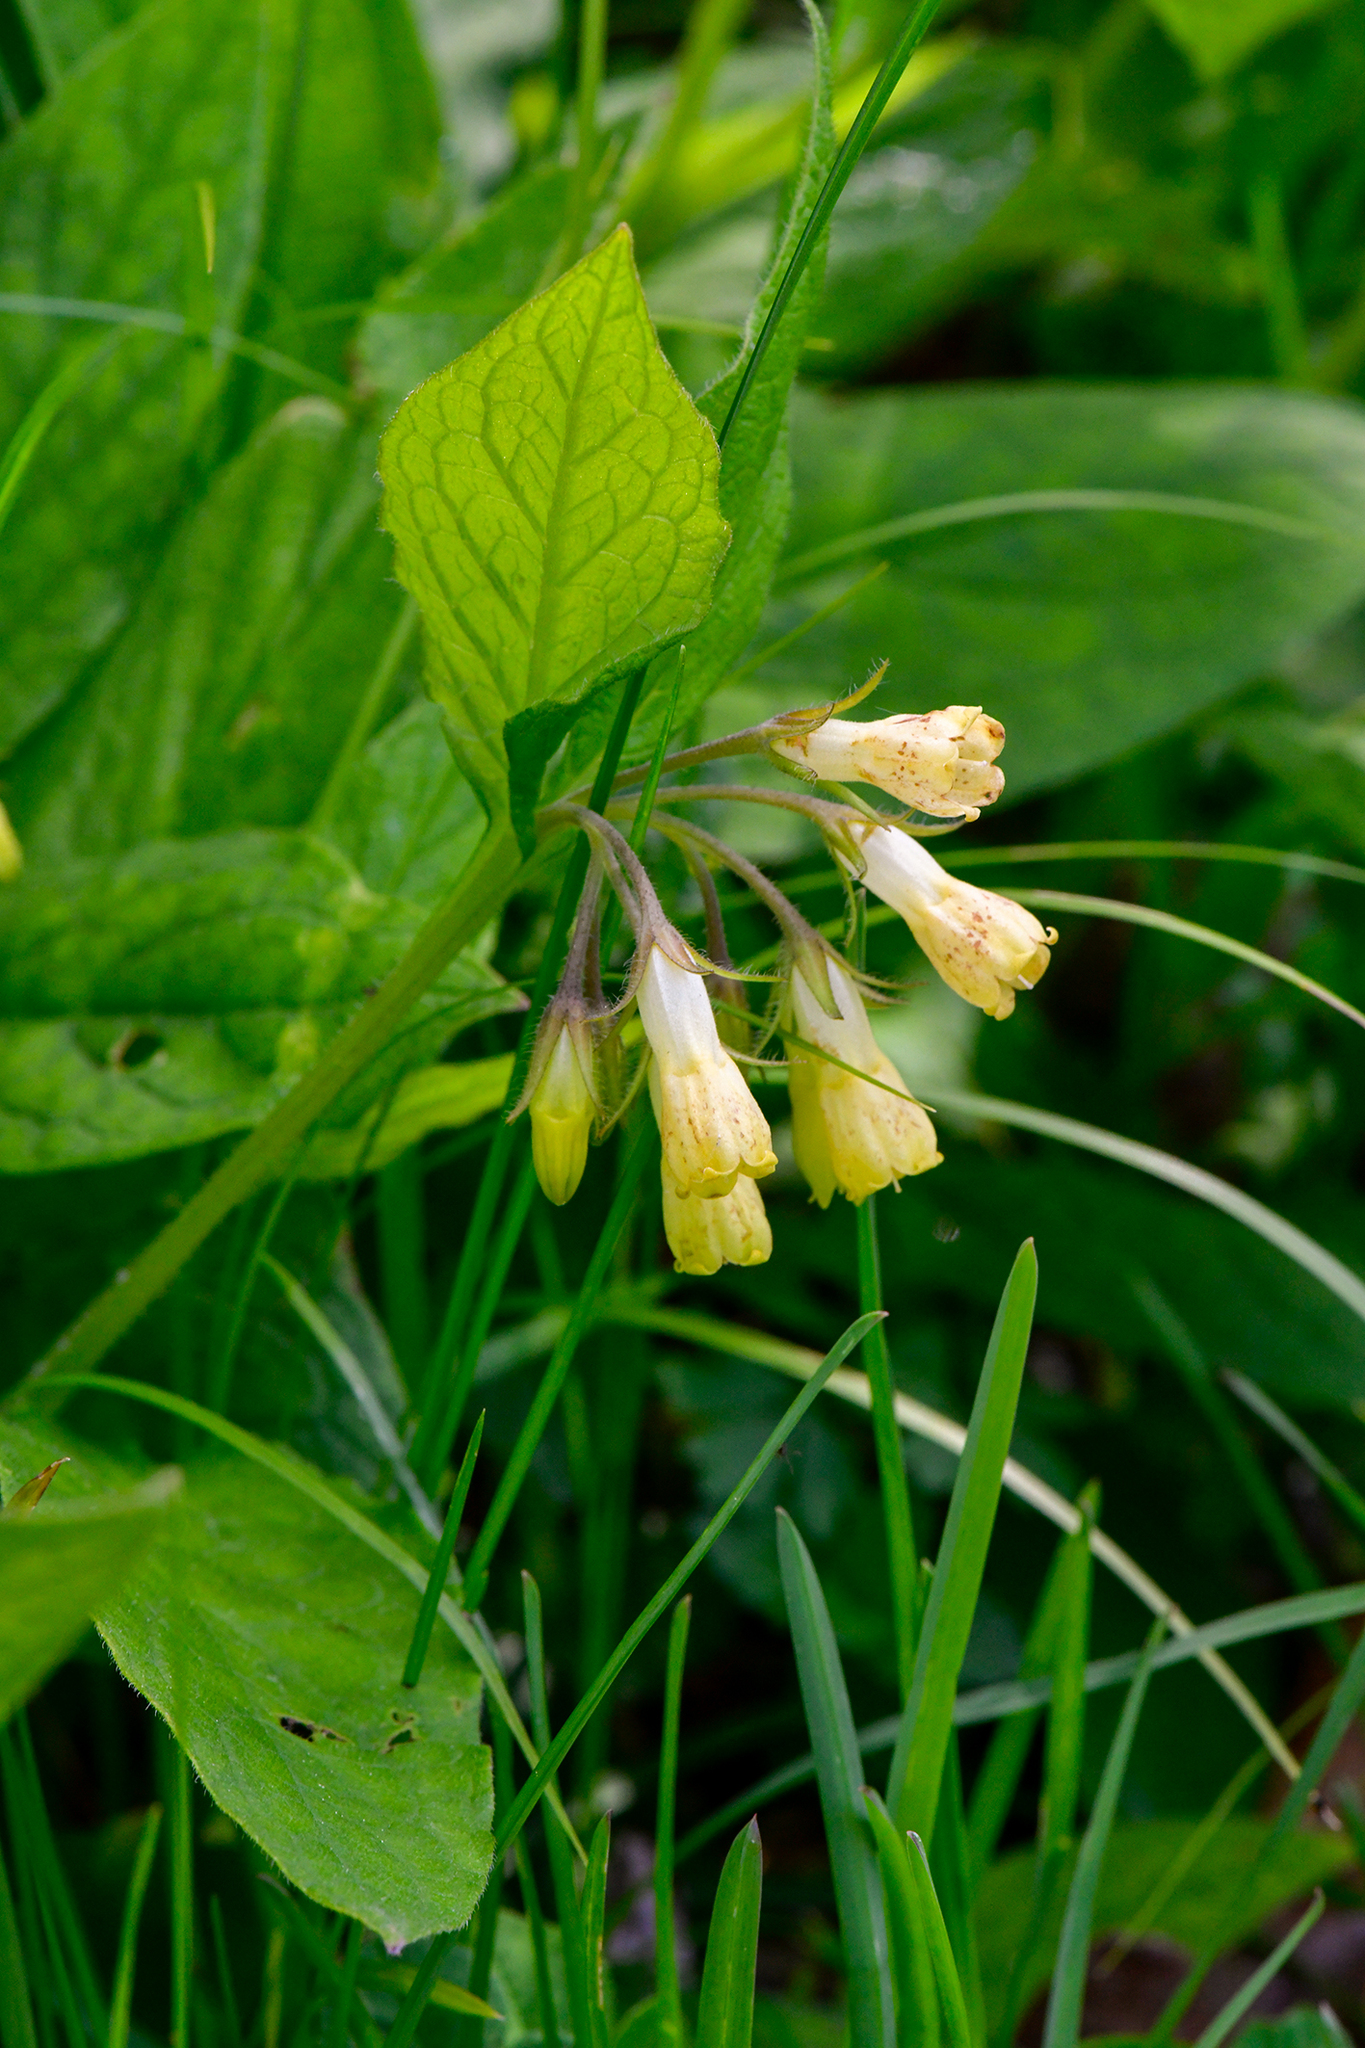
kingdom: Plantae
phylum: Tracheophyta
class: Magnoliopsida
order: Boraginales
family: Boraginaceae
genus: Symphytum
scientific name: Symphytum tuberosum
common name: Tuberous comfrey
